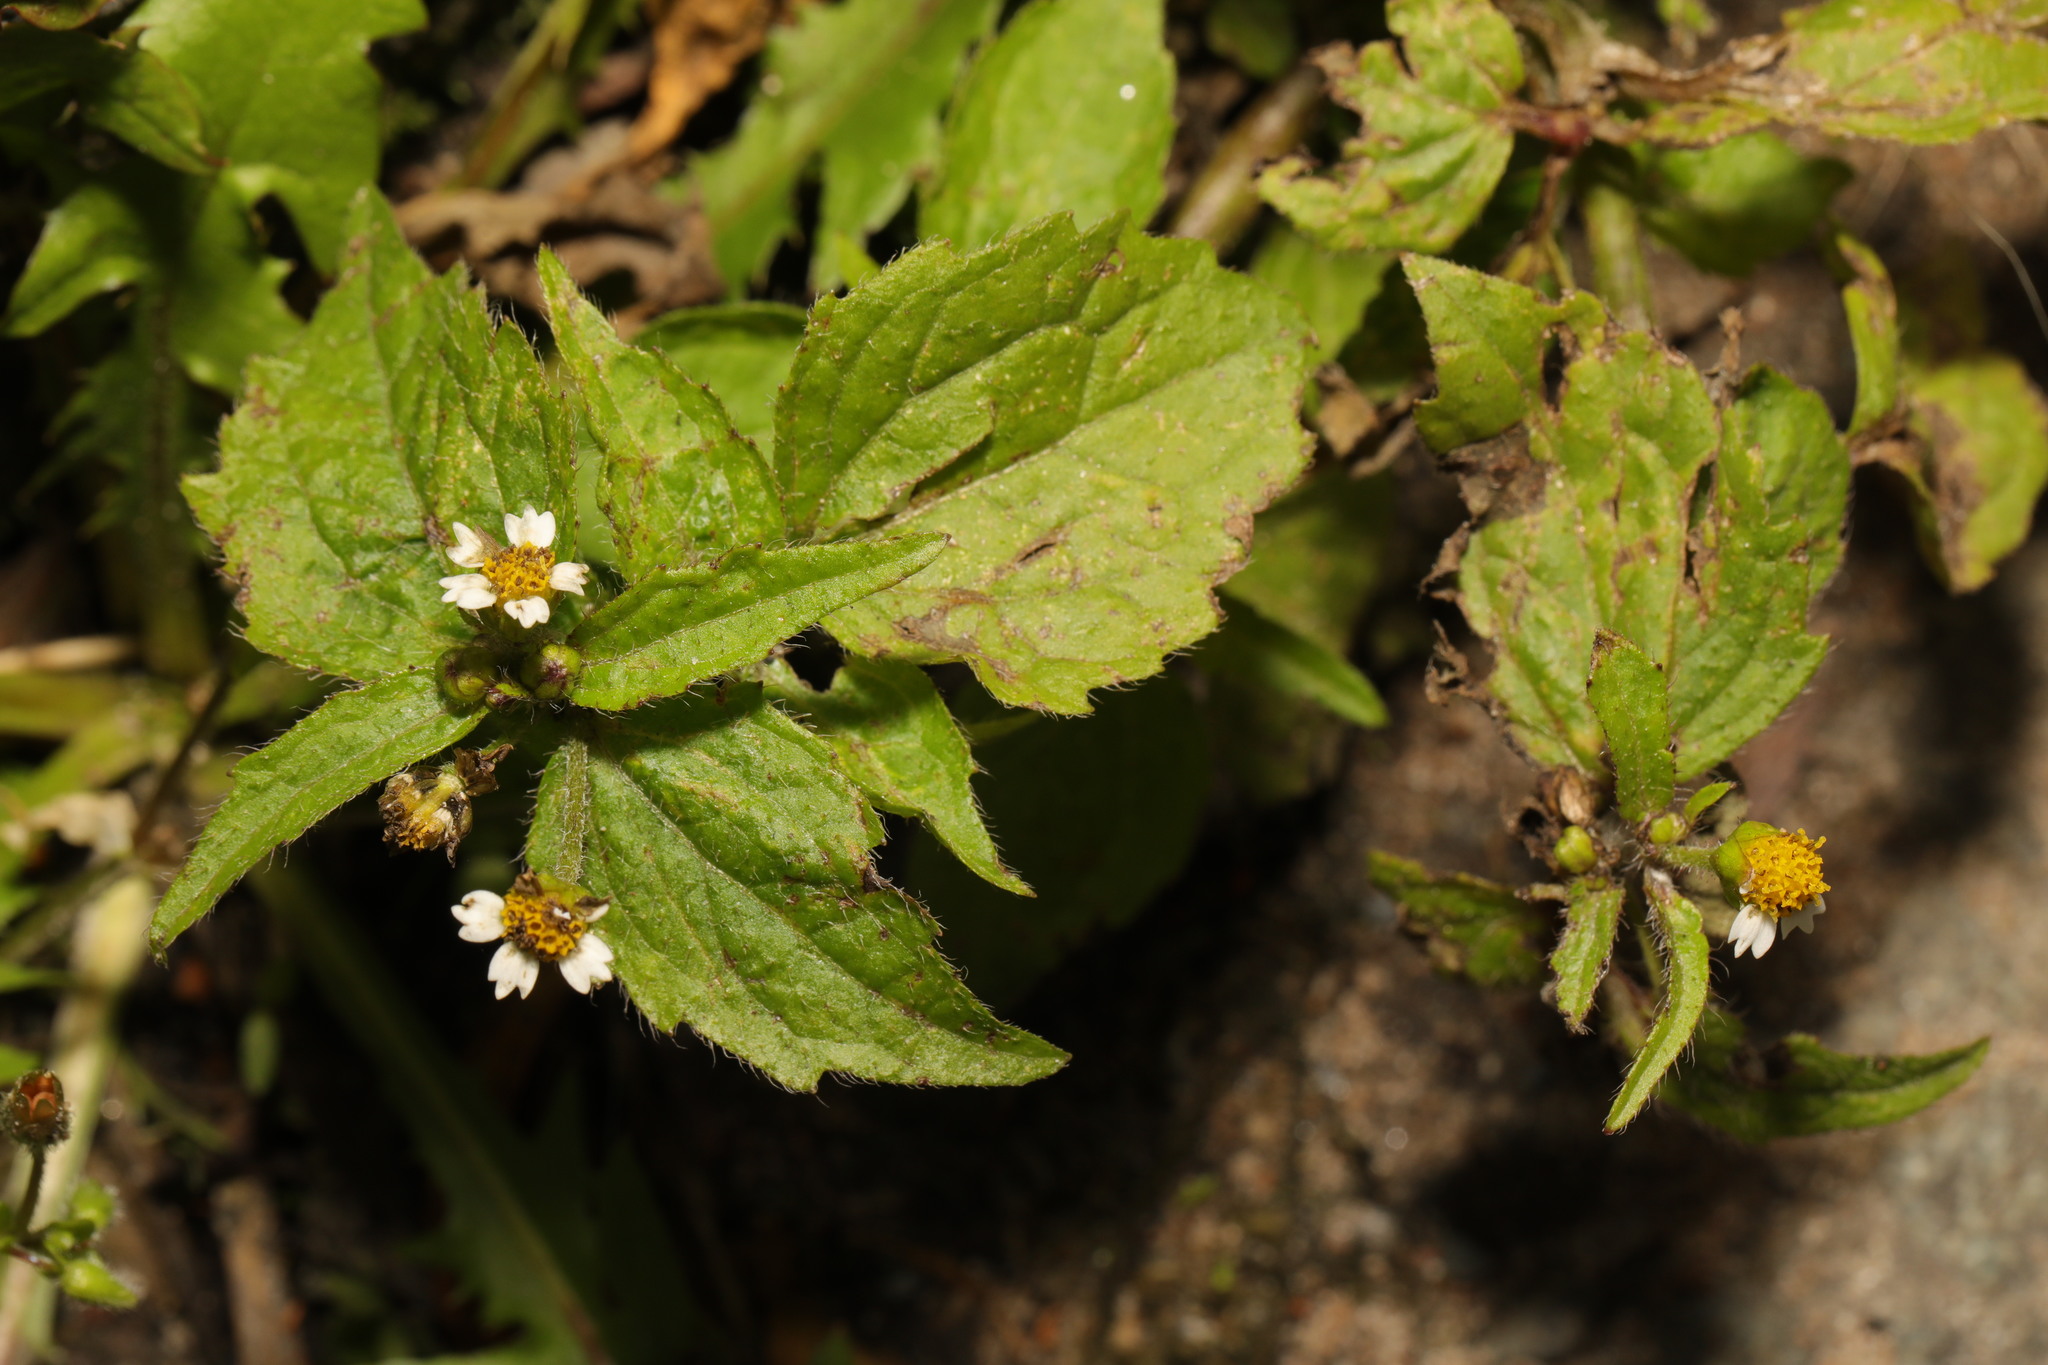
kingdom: Plantae
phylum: Tracheophyta
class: Magnoliopsida
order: Asterales
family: Asteraceae
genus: Galinsoga
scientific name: Galinsoga quadriradiata
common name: Shaggy soldier
